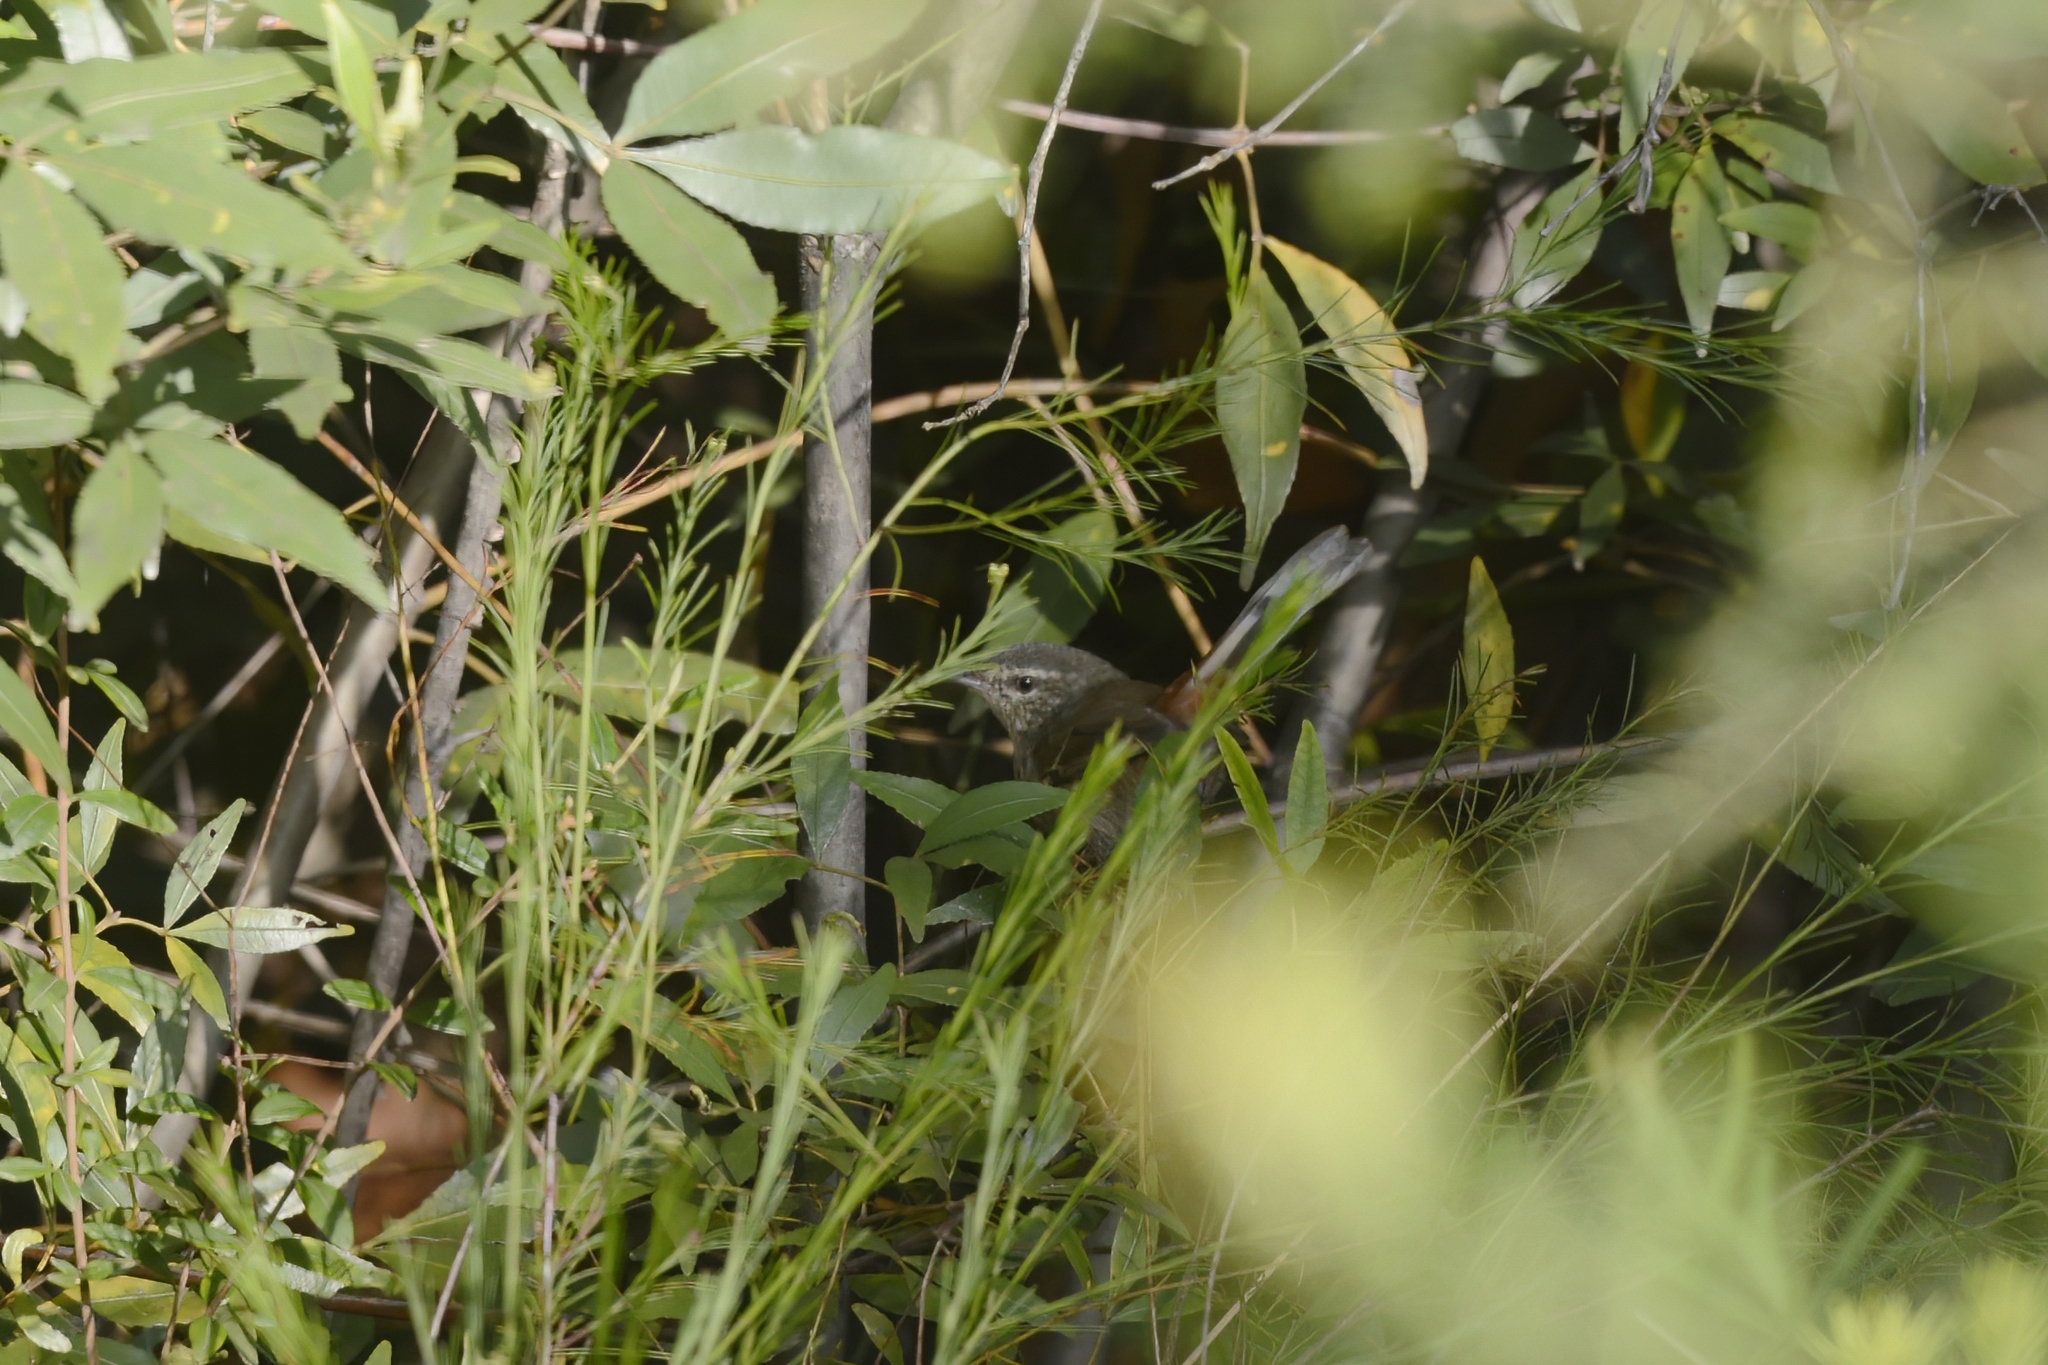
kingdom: Animalia
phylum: Chordata
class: Aves
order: Passeriformes
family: Acanthizidae
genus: Calamanthus
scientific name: Calamanthus pyrrhopygius
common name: Chestnut-rumped heathwren
